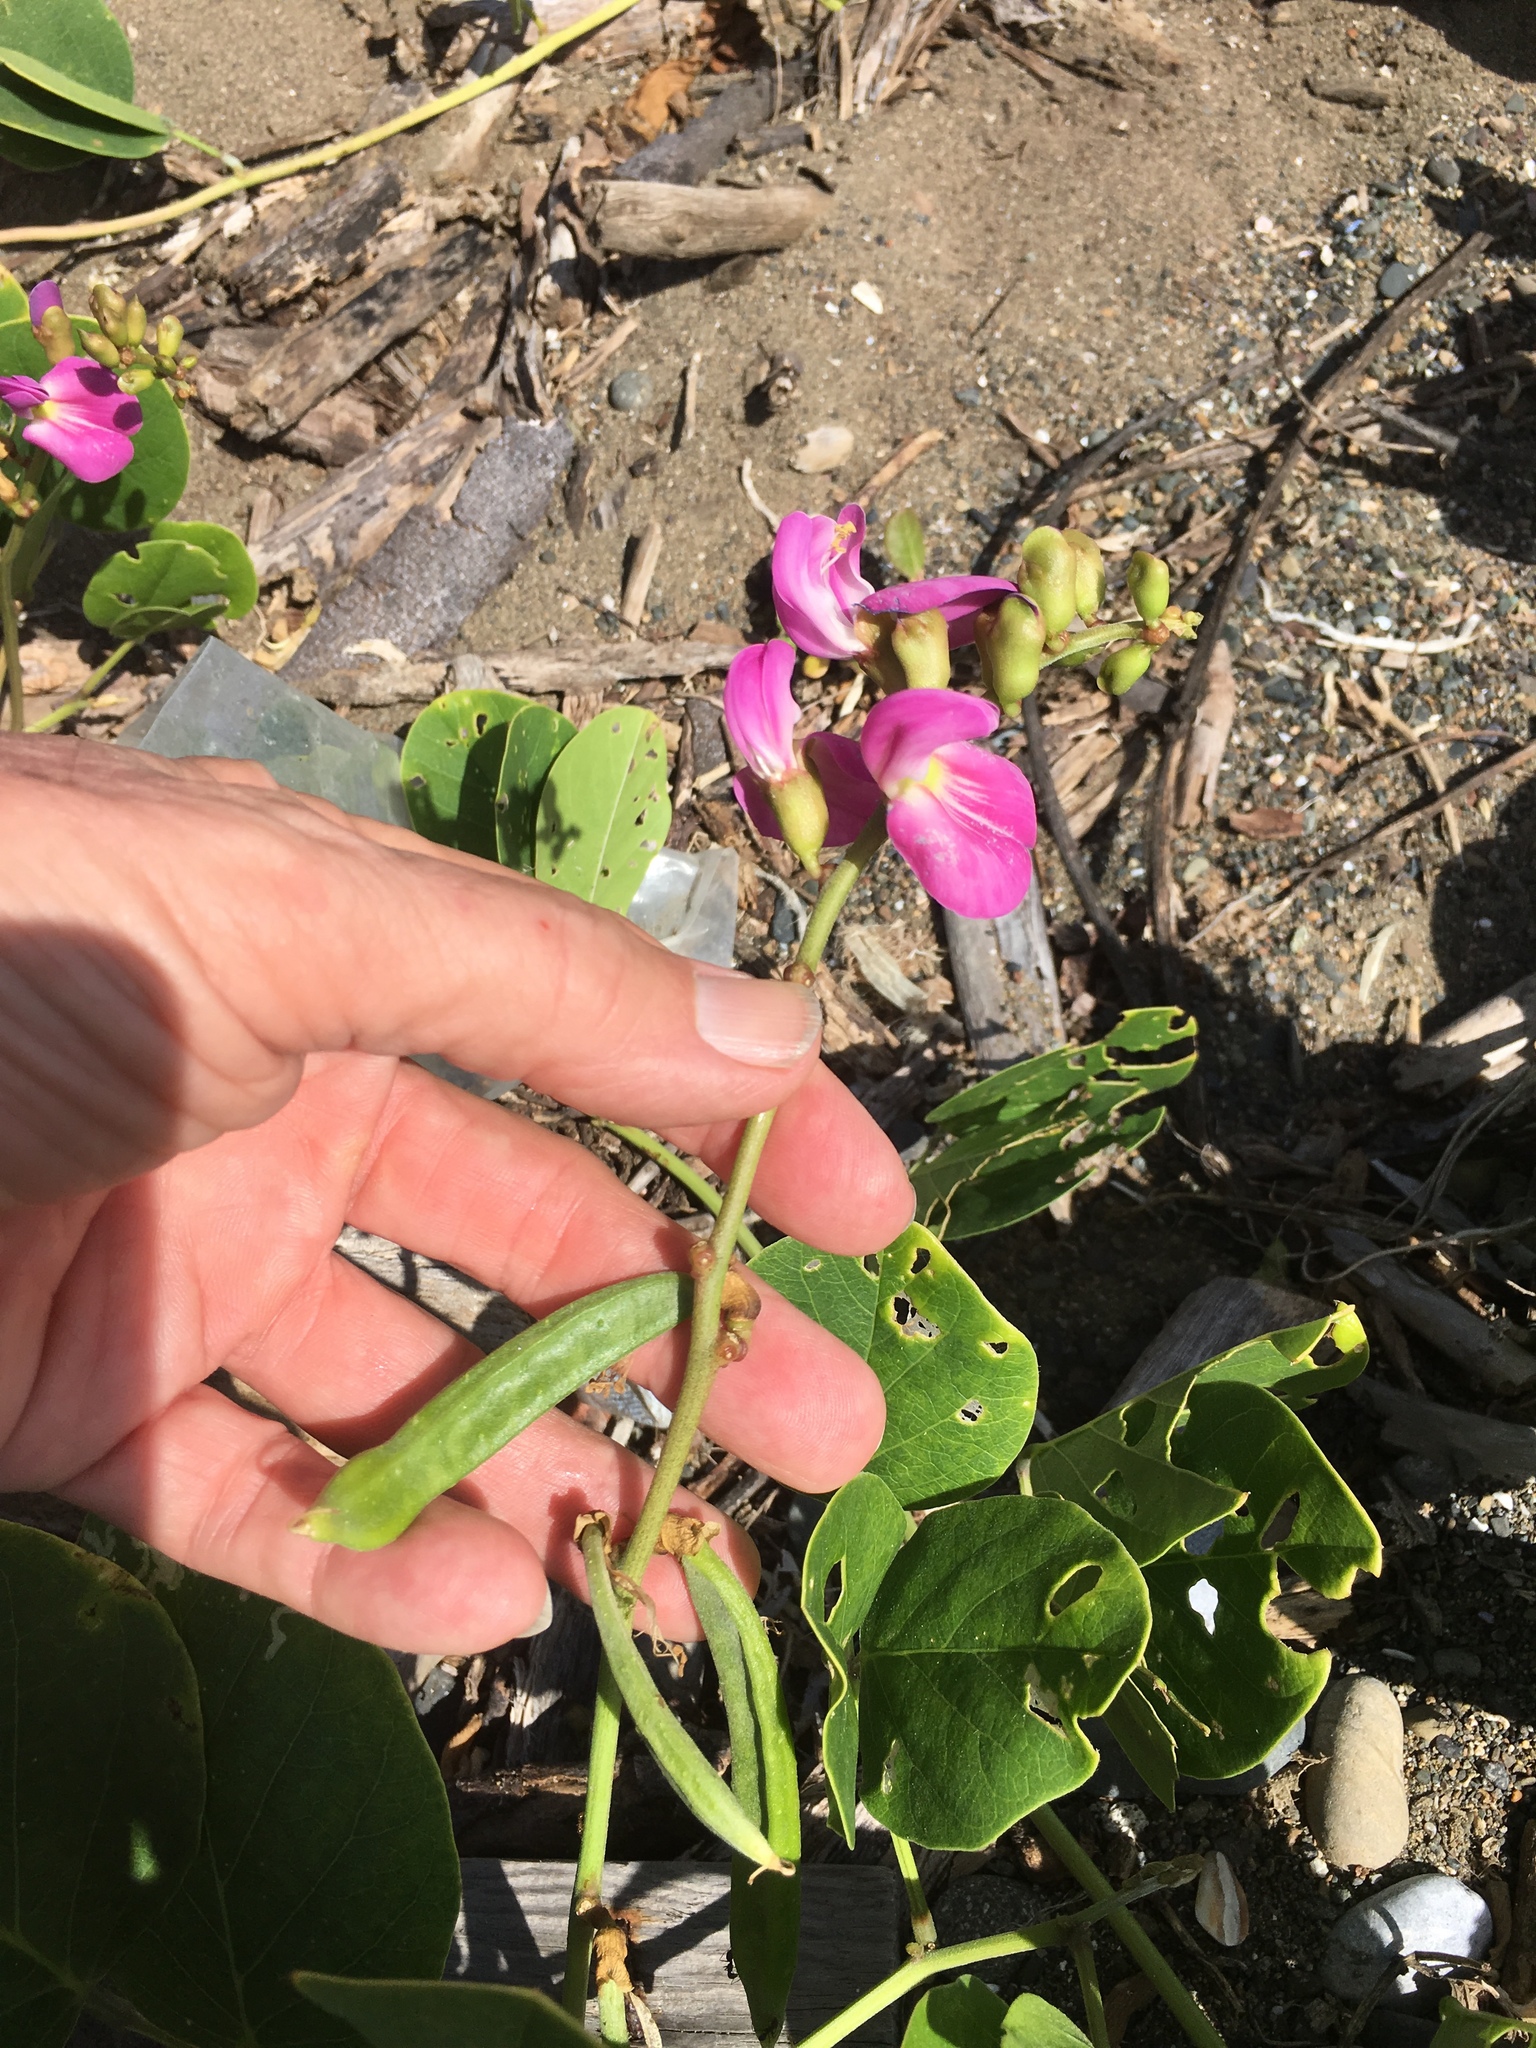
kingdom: Plantae
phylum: Tracheophyta
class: Magnoliopsida
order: Fabales
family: Fabaceae
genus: Canavalia
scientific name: Canavalia rosea
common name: Beach-bean
